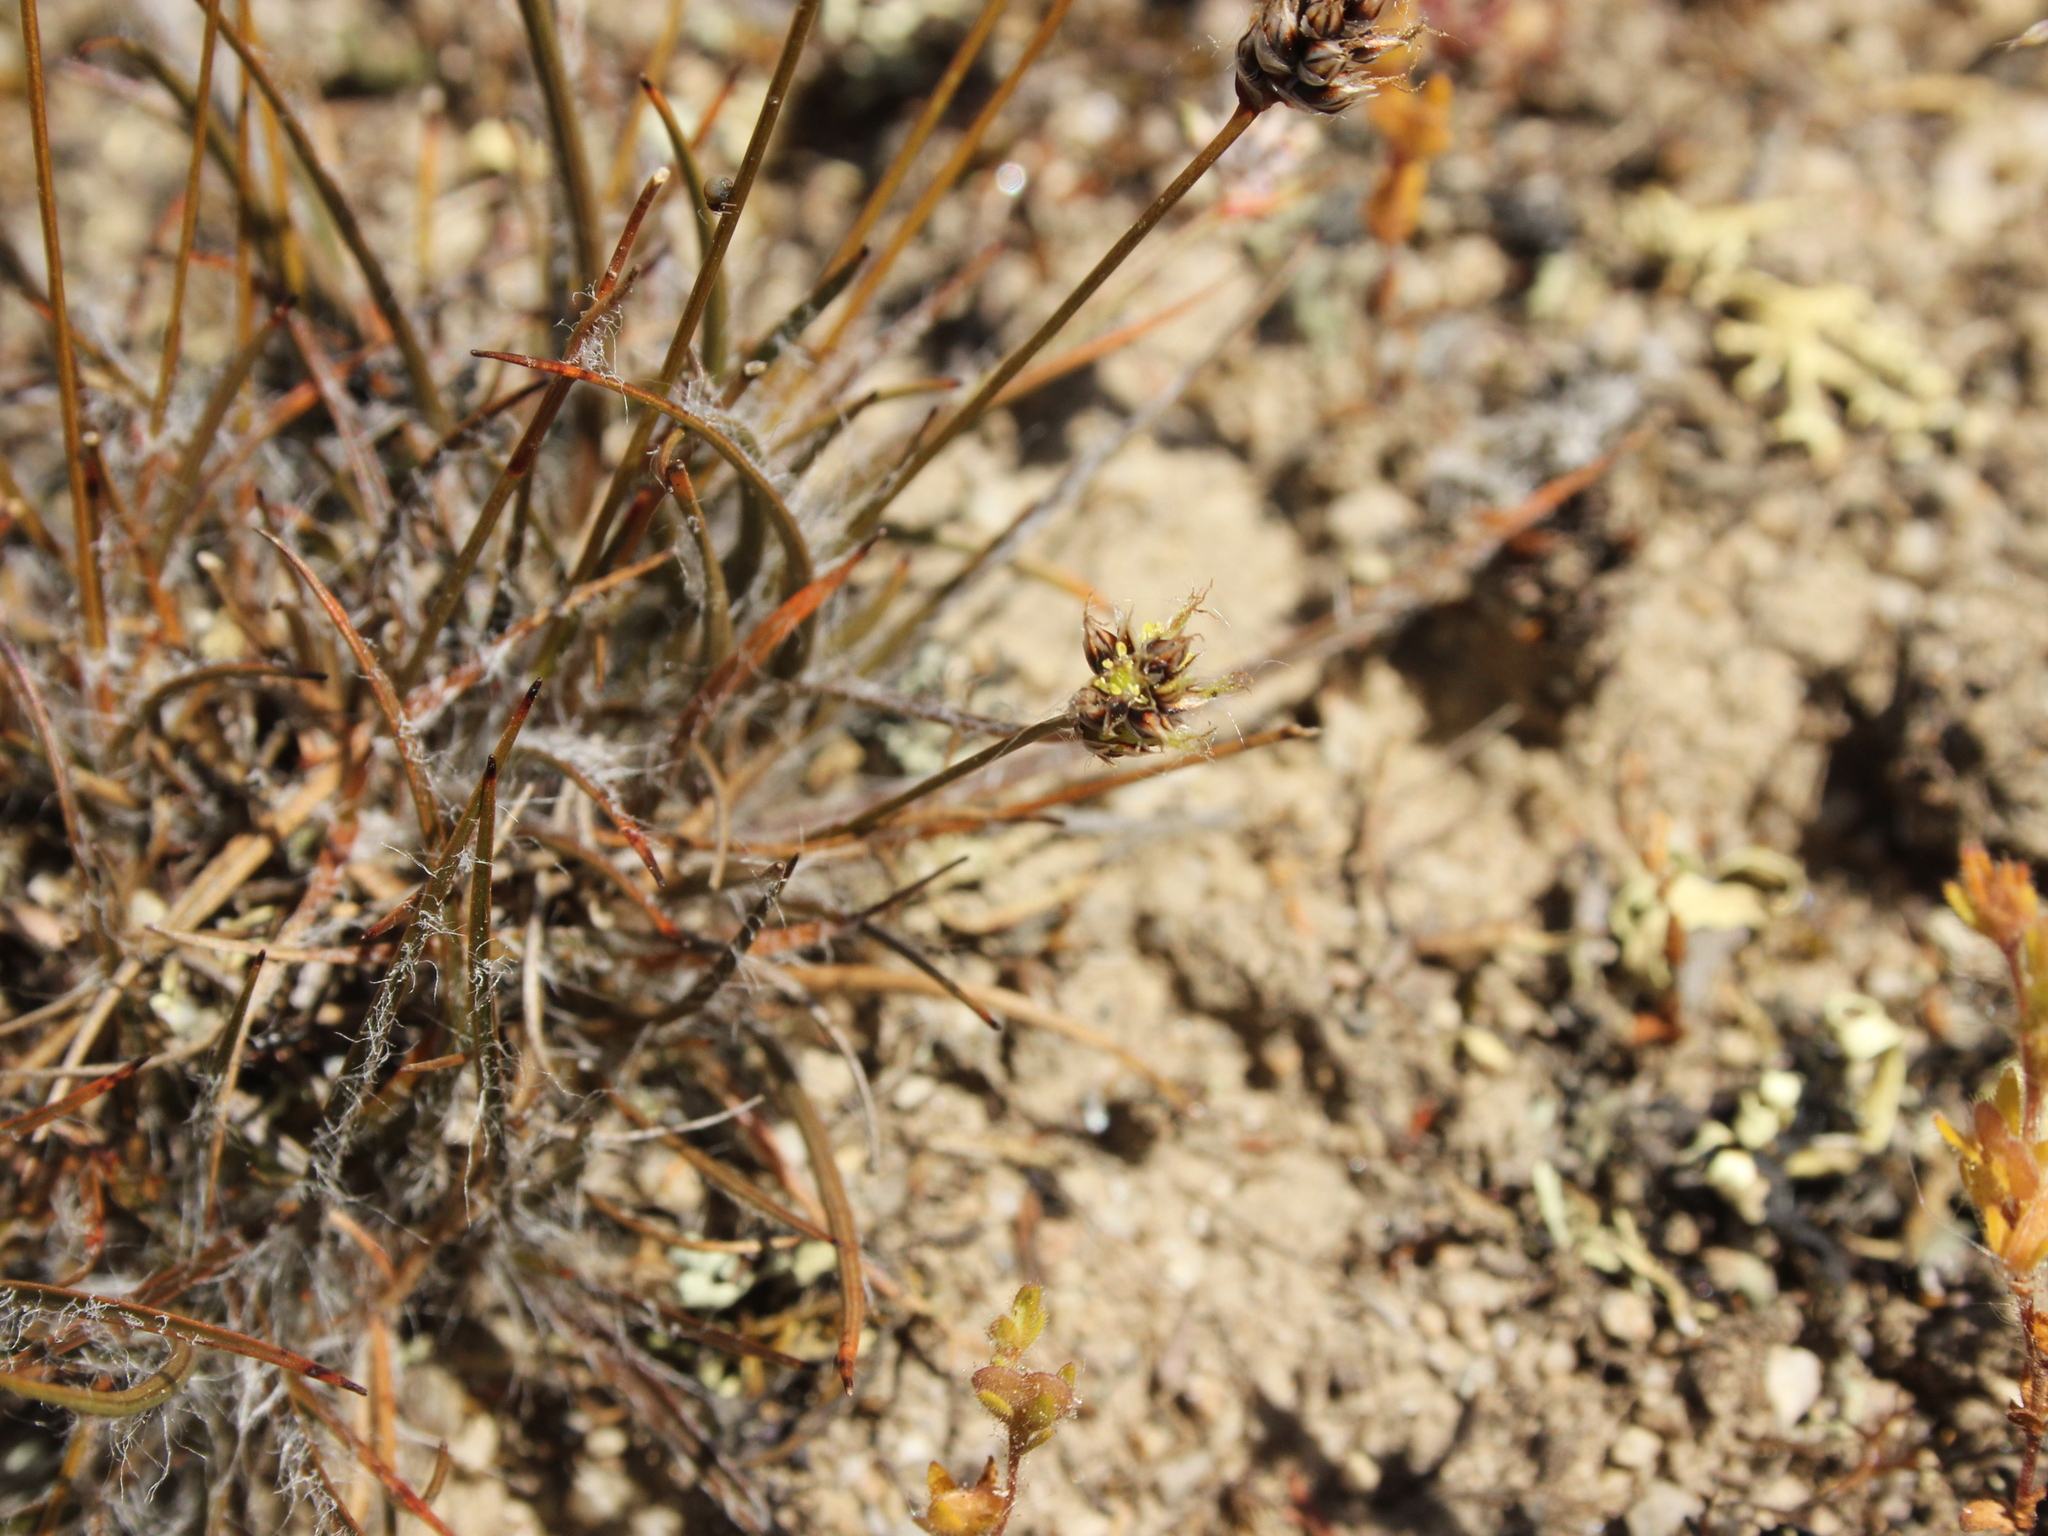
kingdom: Plantae
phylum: Tracheophyta
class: Liliopsida
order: Poales
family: Juncaceae
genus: Luzula
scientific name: Luzula rufa
